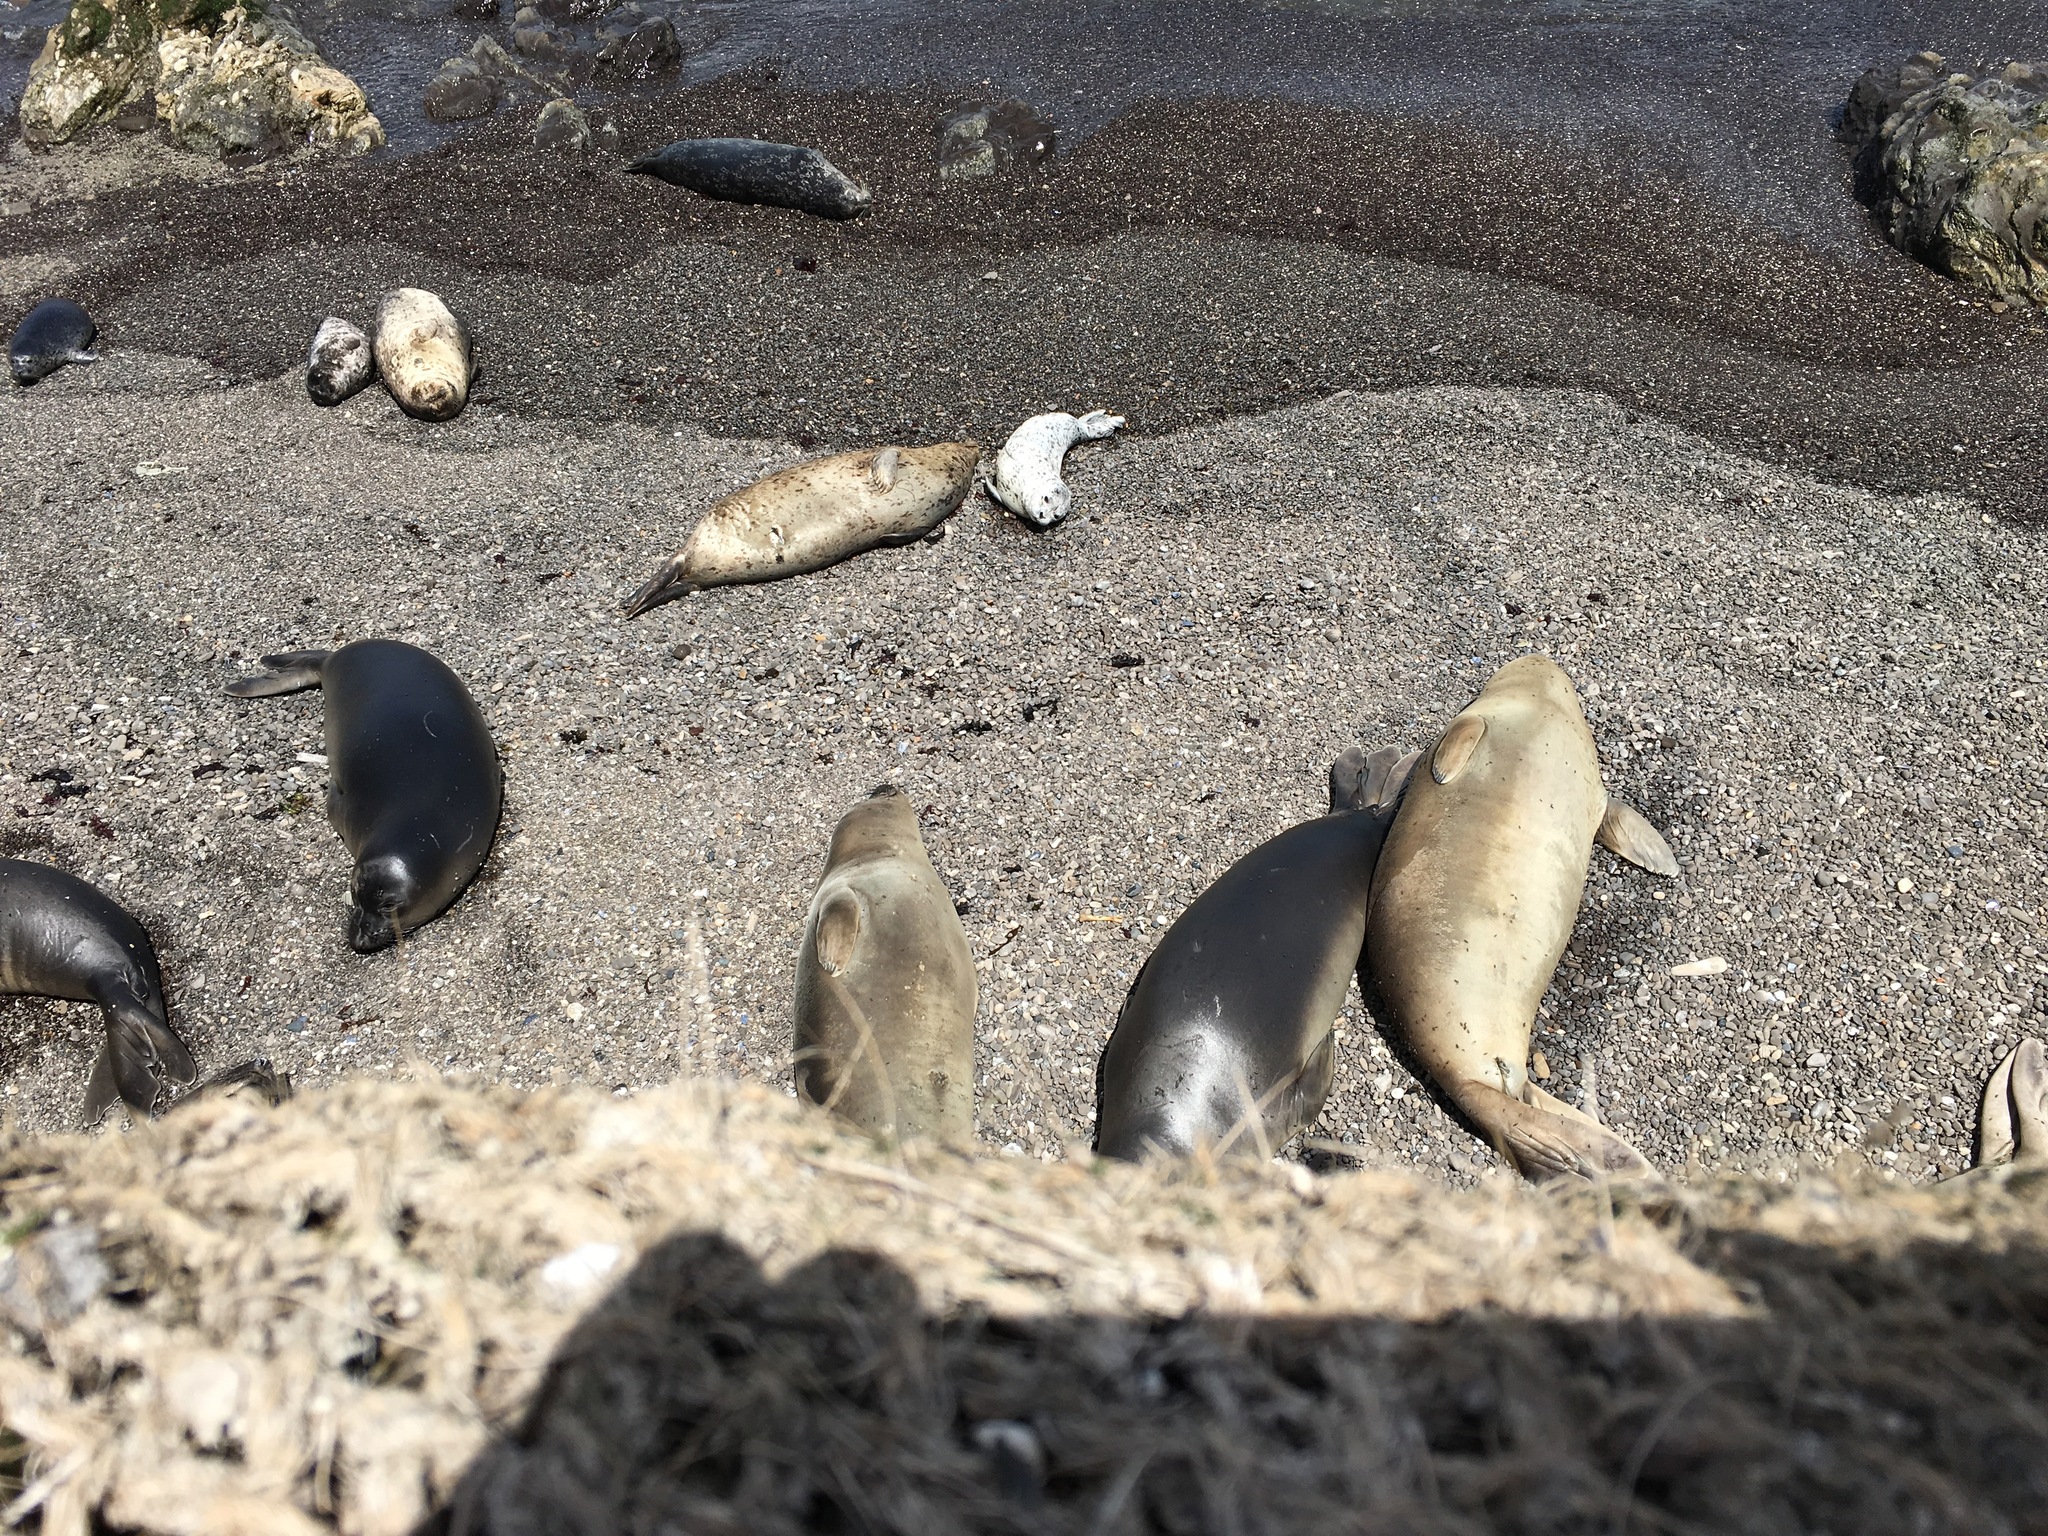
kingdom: Animalia
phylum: Chordata
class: Mammalia
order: Carnivora
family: Phocidae
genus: Mirounga
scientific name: Mirounga angustirostris
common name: Northern elephant seal
